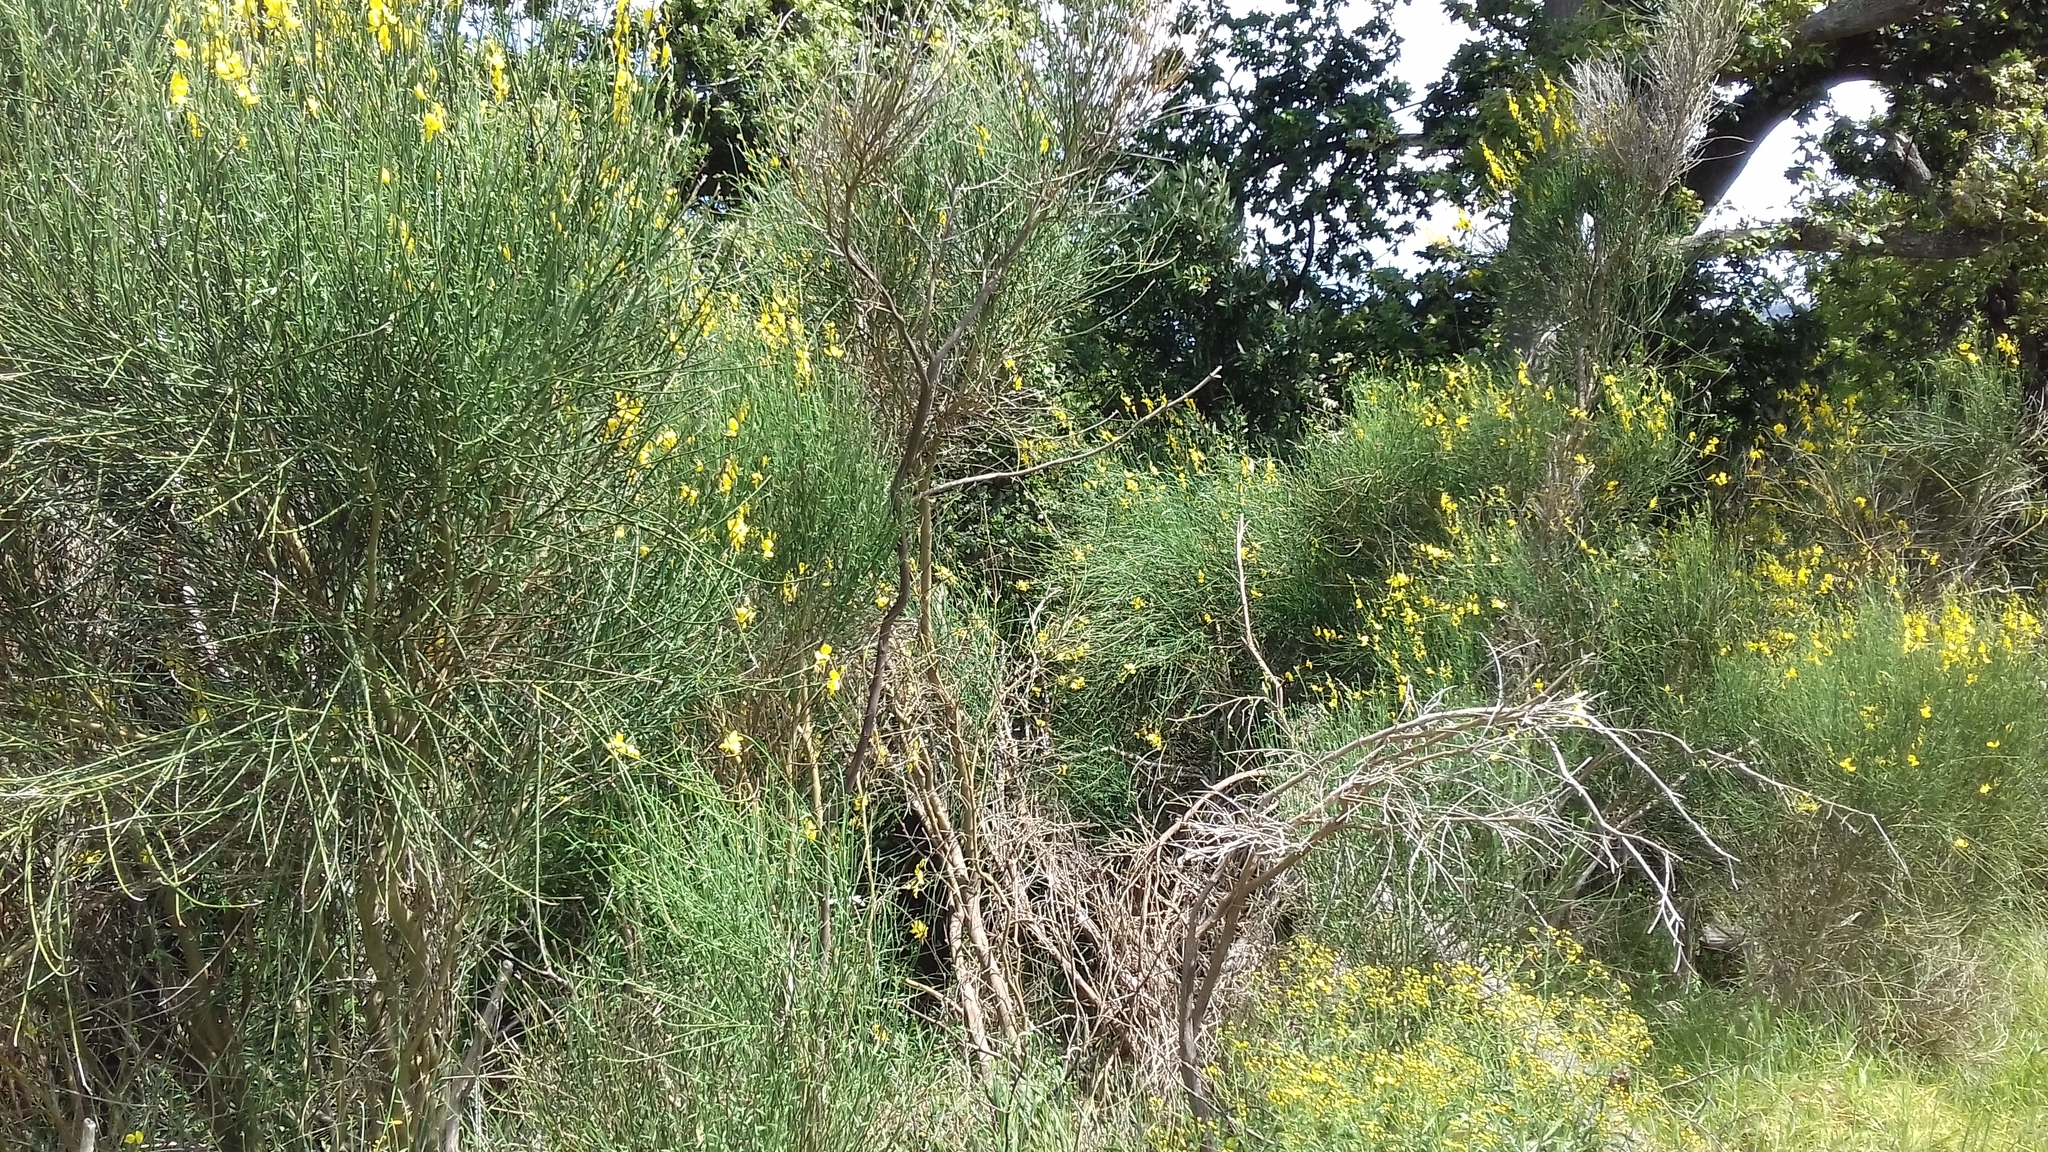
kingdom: Plantae
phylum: Tracheophyta
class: Magnoliopsida
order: Fabales
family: Fabaceae
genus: Spartium
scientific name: Spartium junceum
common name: Spanish broom
